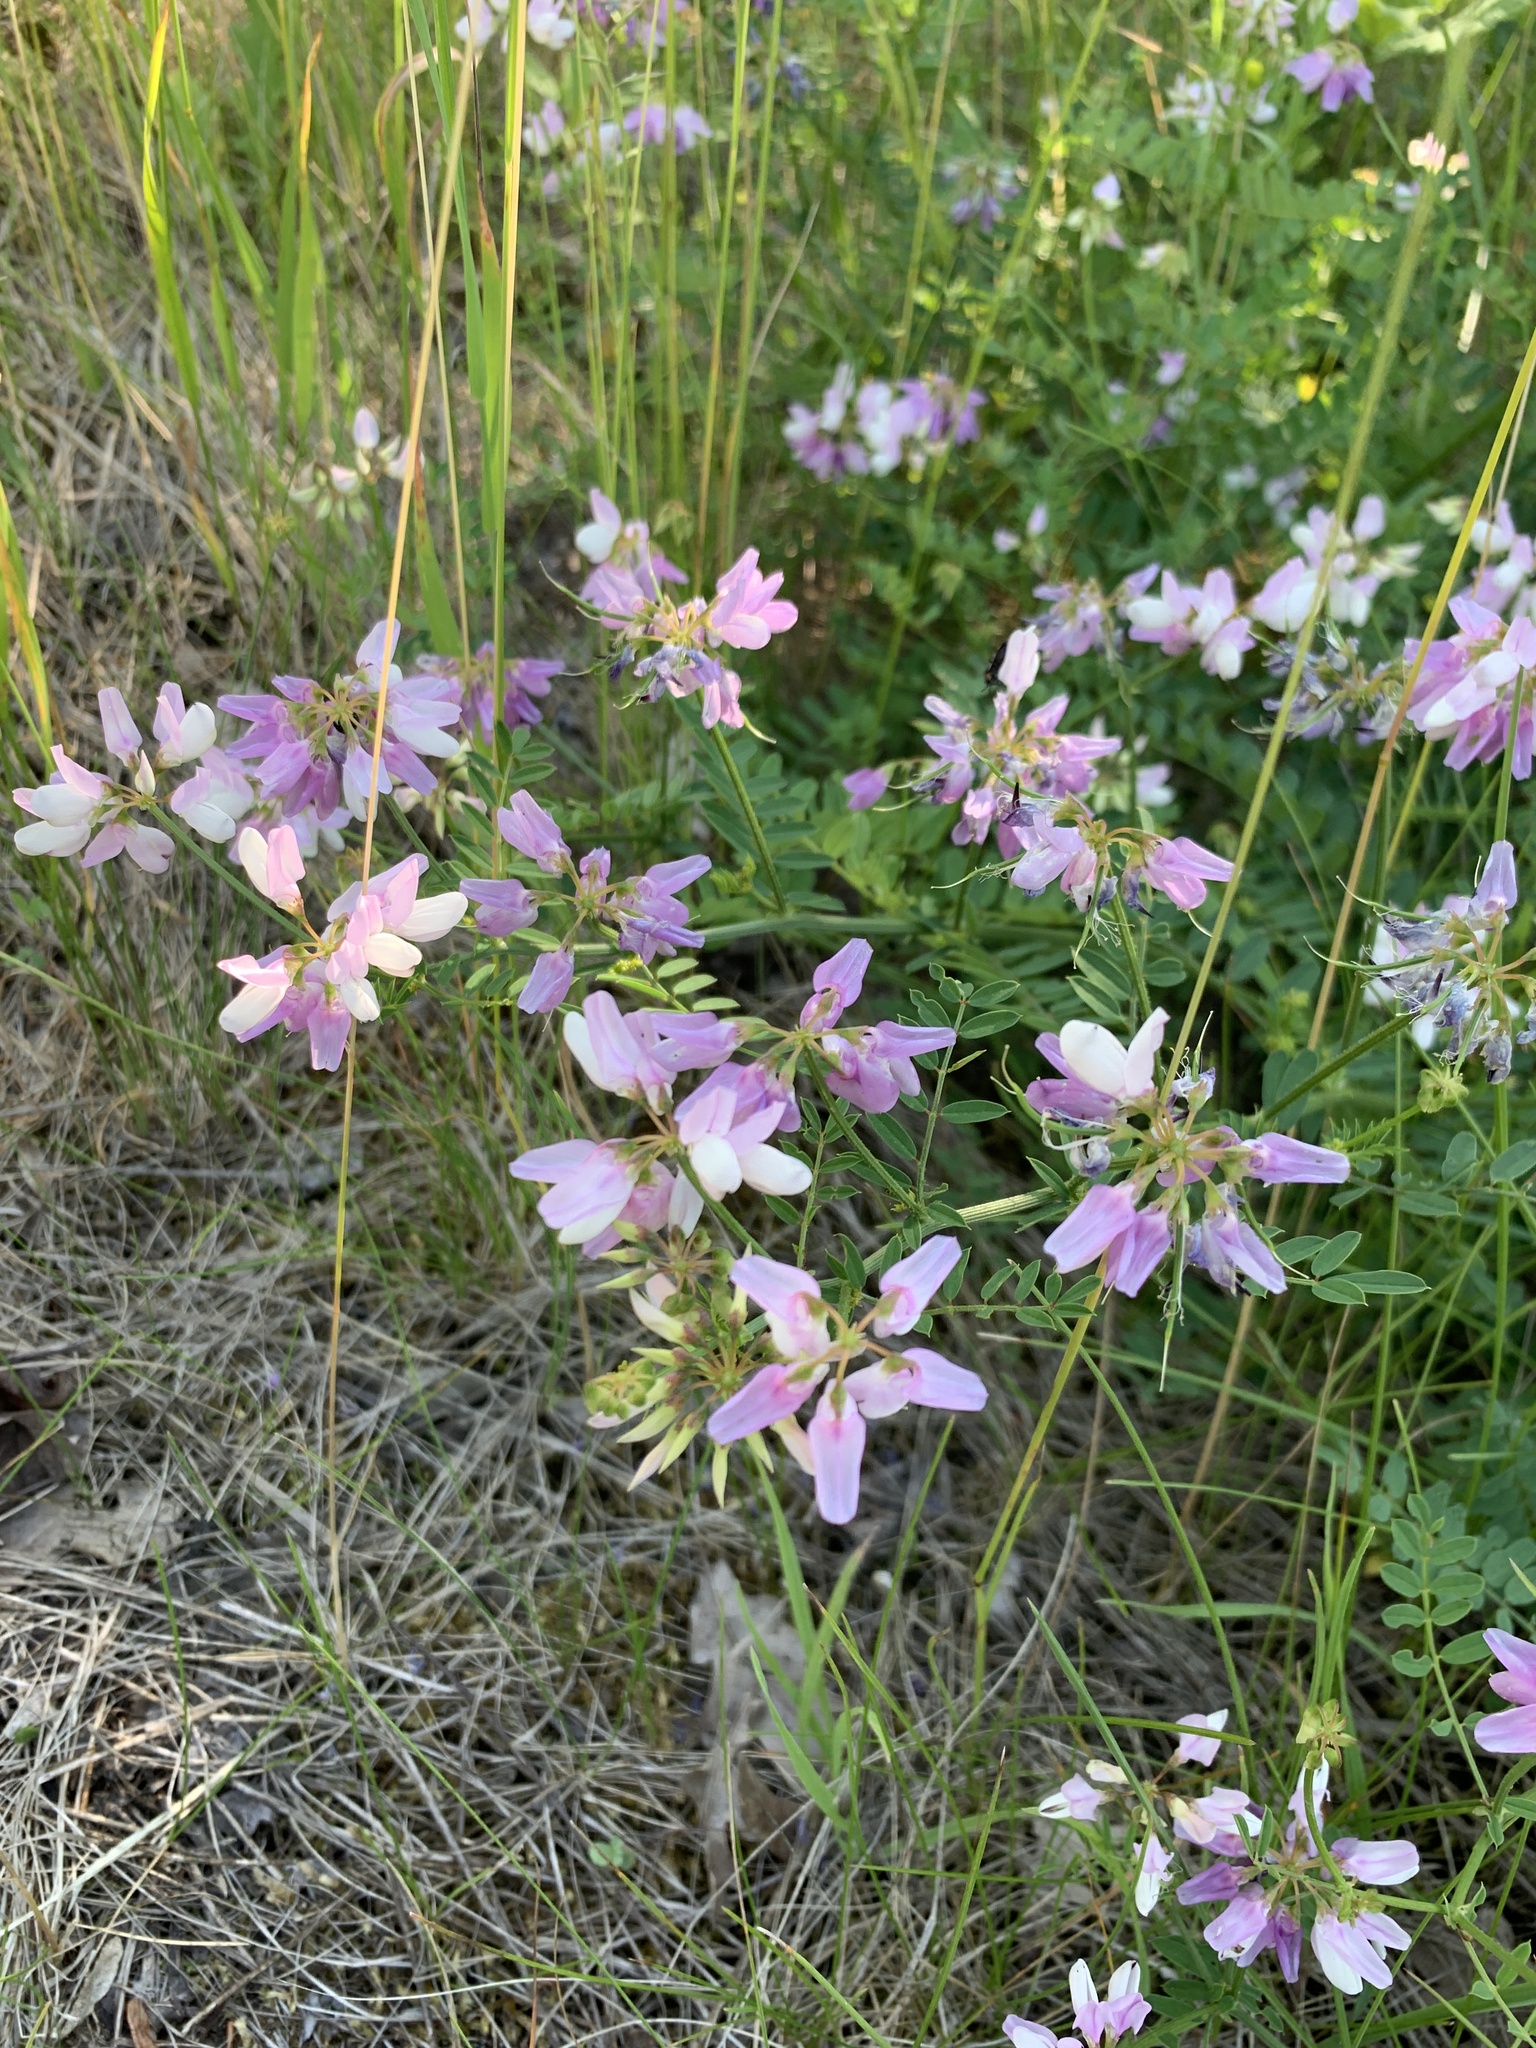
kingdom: Plantae
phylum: Tracheophyta
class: Magnoliopsida
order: Fabales
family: Fabaceae
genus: Coronilla
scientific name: Coronilla varia
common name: Crownvetch
